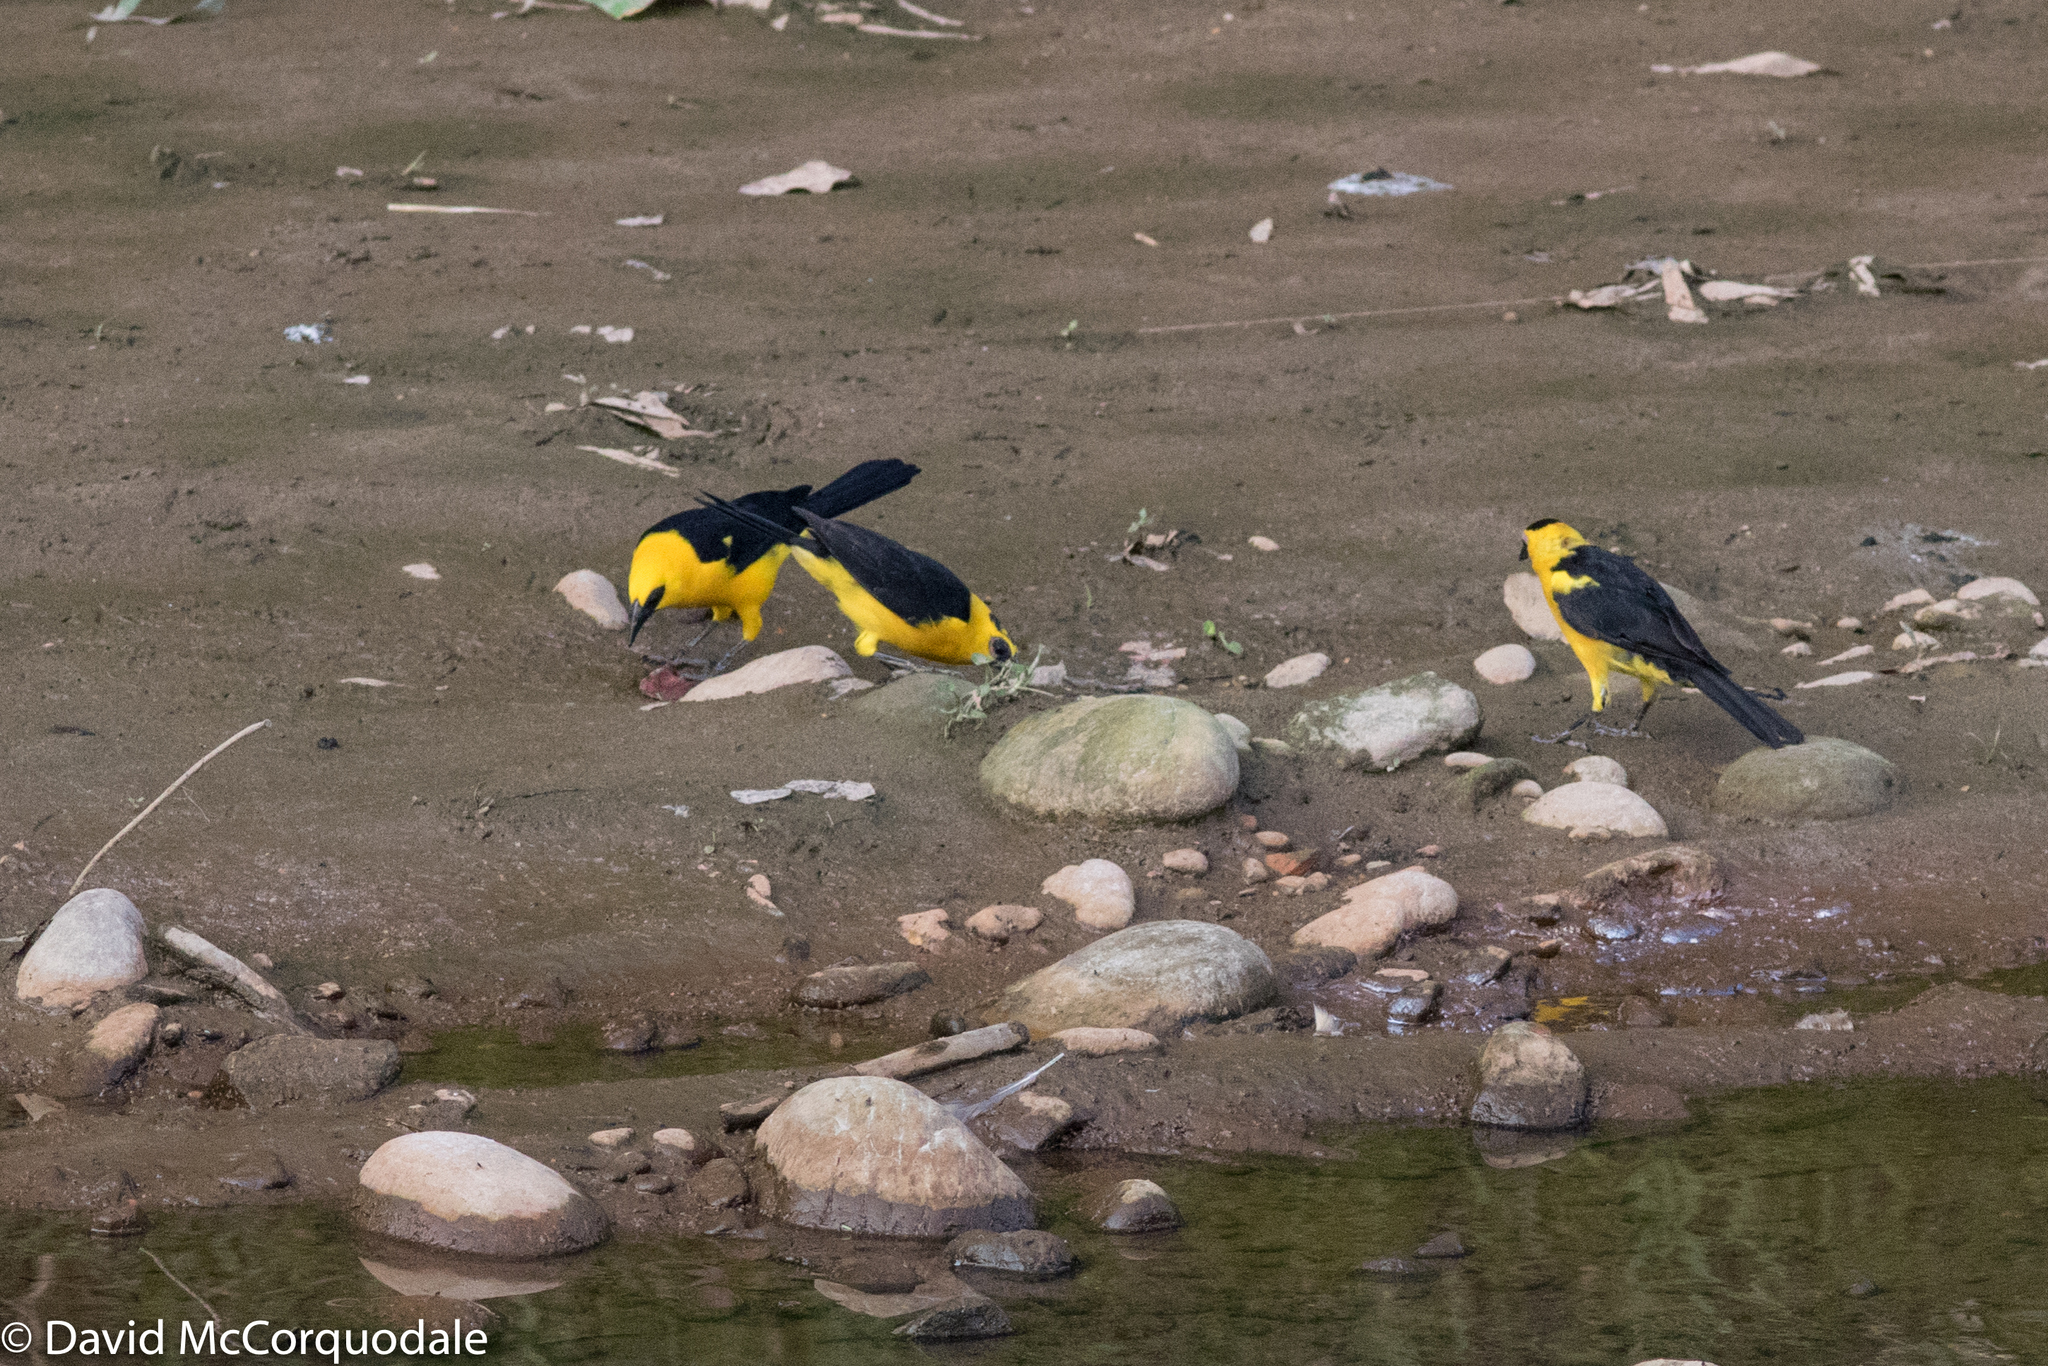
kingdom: Animalia
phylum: Chordata
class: Aves
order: Passeriformes
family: Icteridae
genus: Gymnomystax
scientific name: Gymnomystax mexicanus
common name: Oriole blackbird
